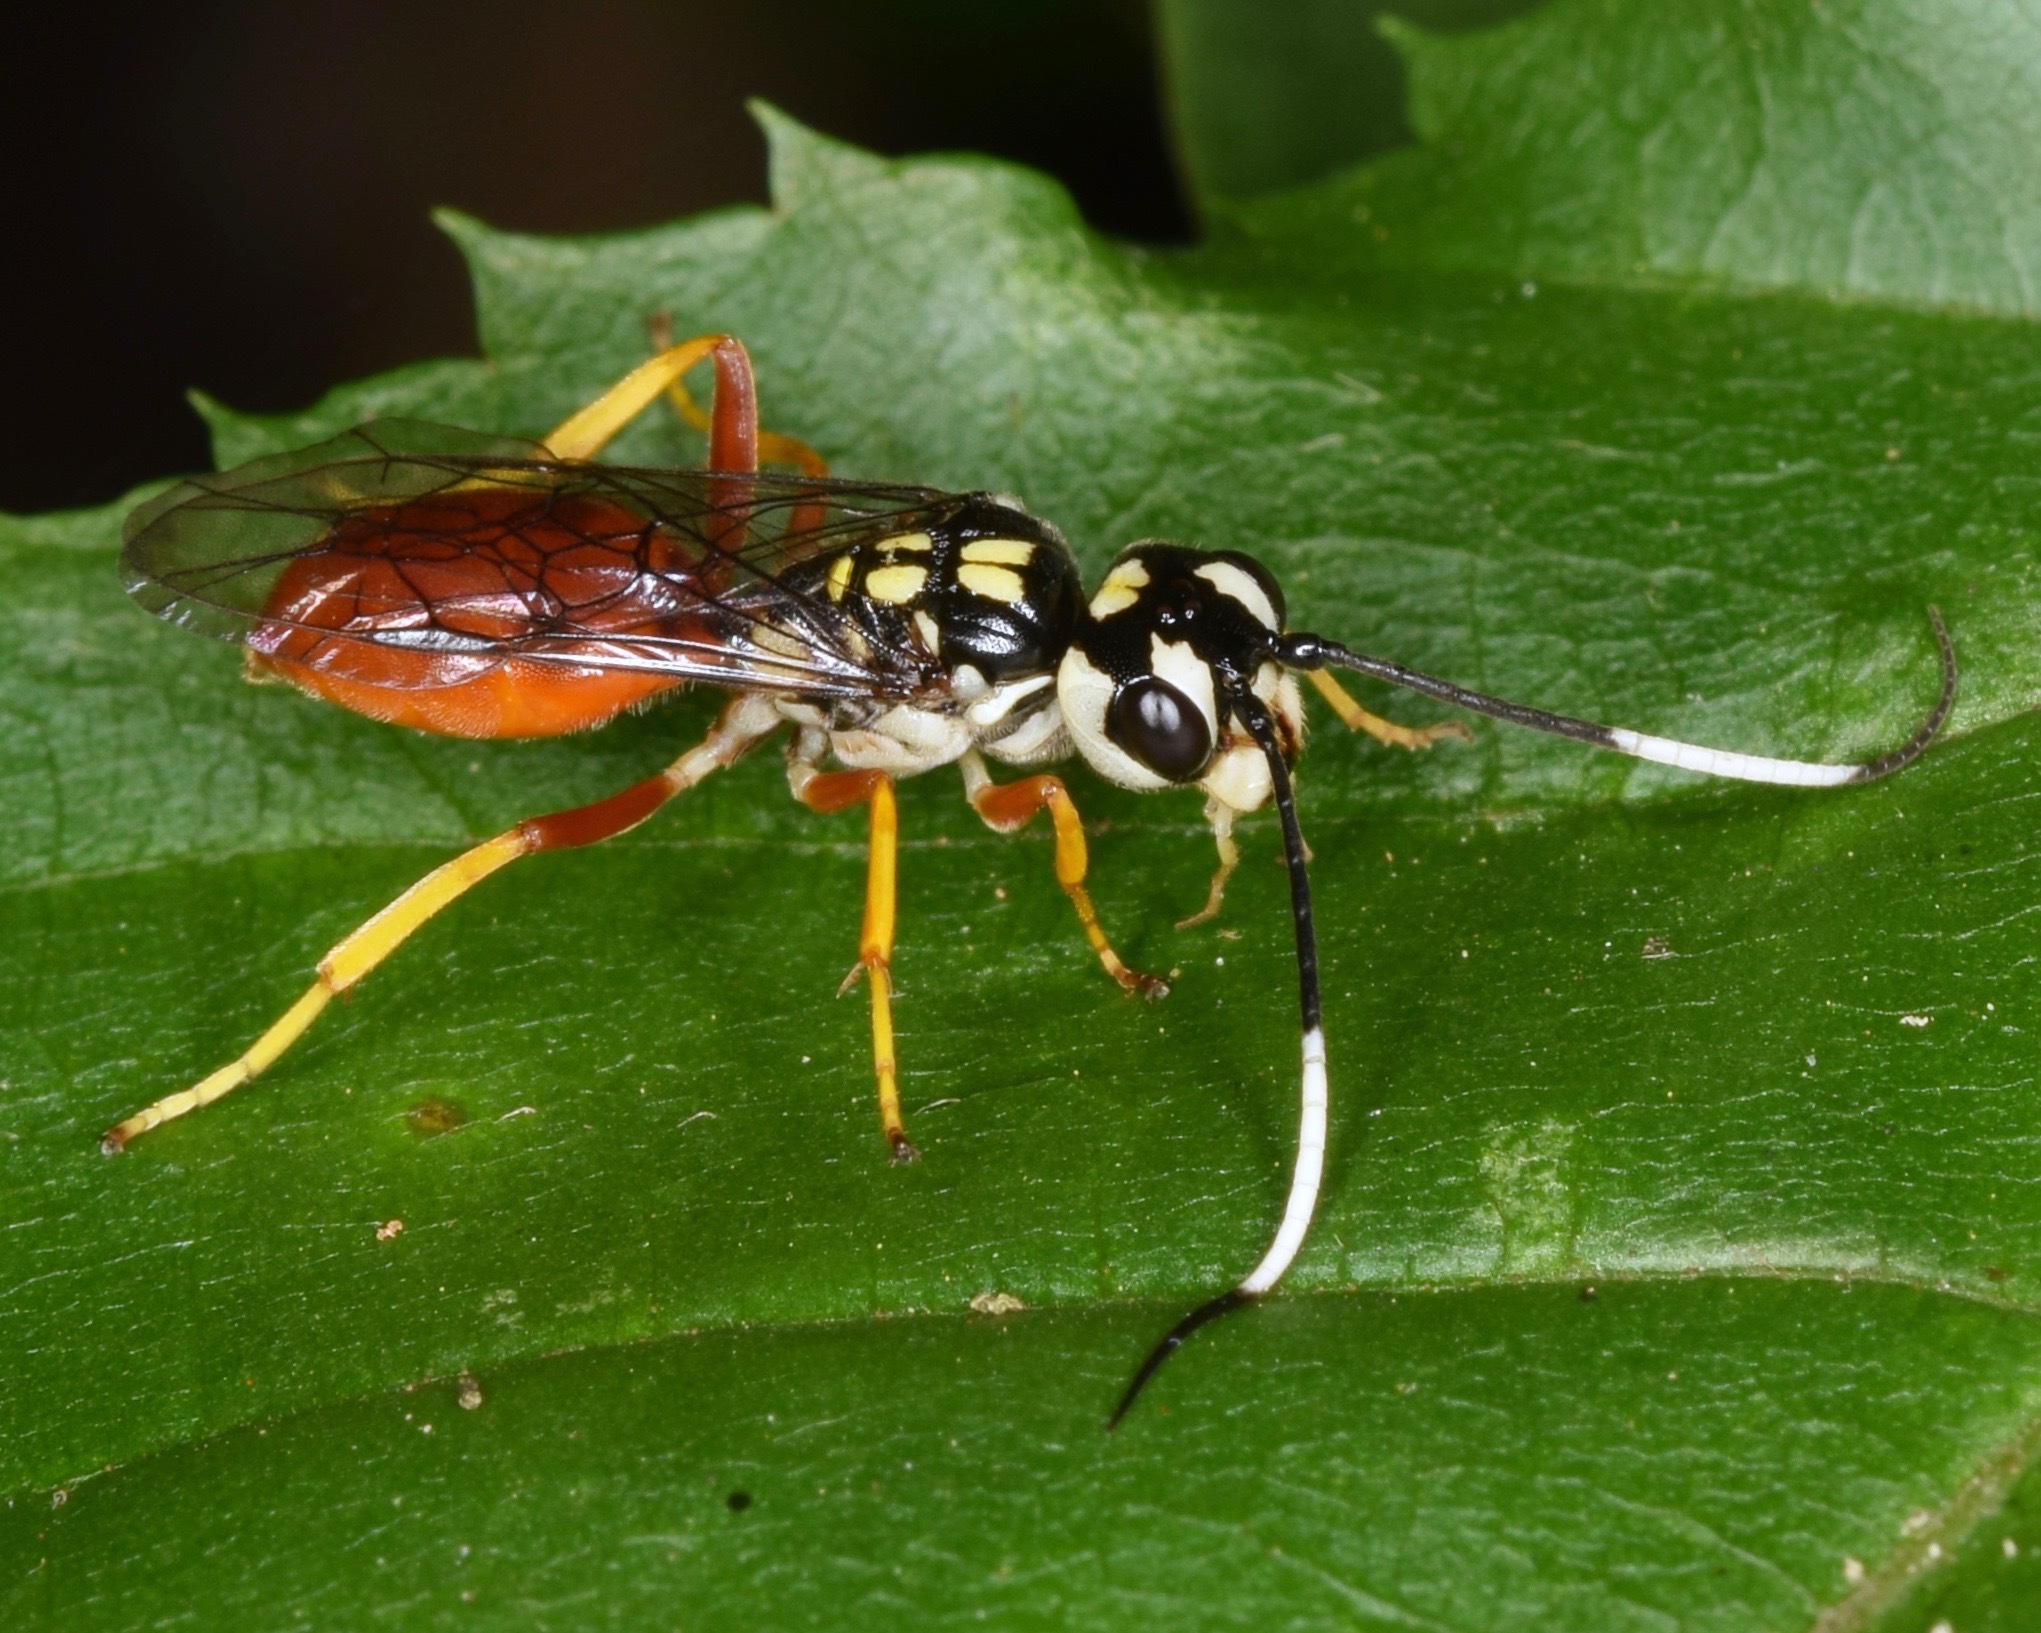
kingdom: Animalia
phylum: Arthropoda
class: Insecta
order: Hymenoptera
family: Trigonalidae
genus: Orthogonalys
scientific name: Orthogonalys pulchella
